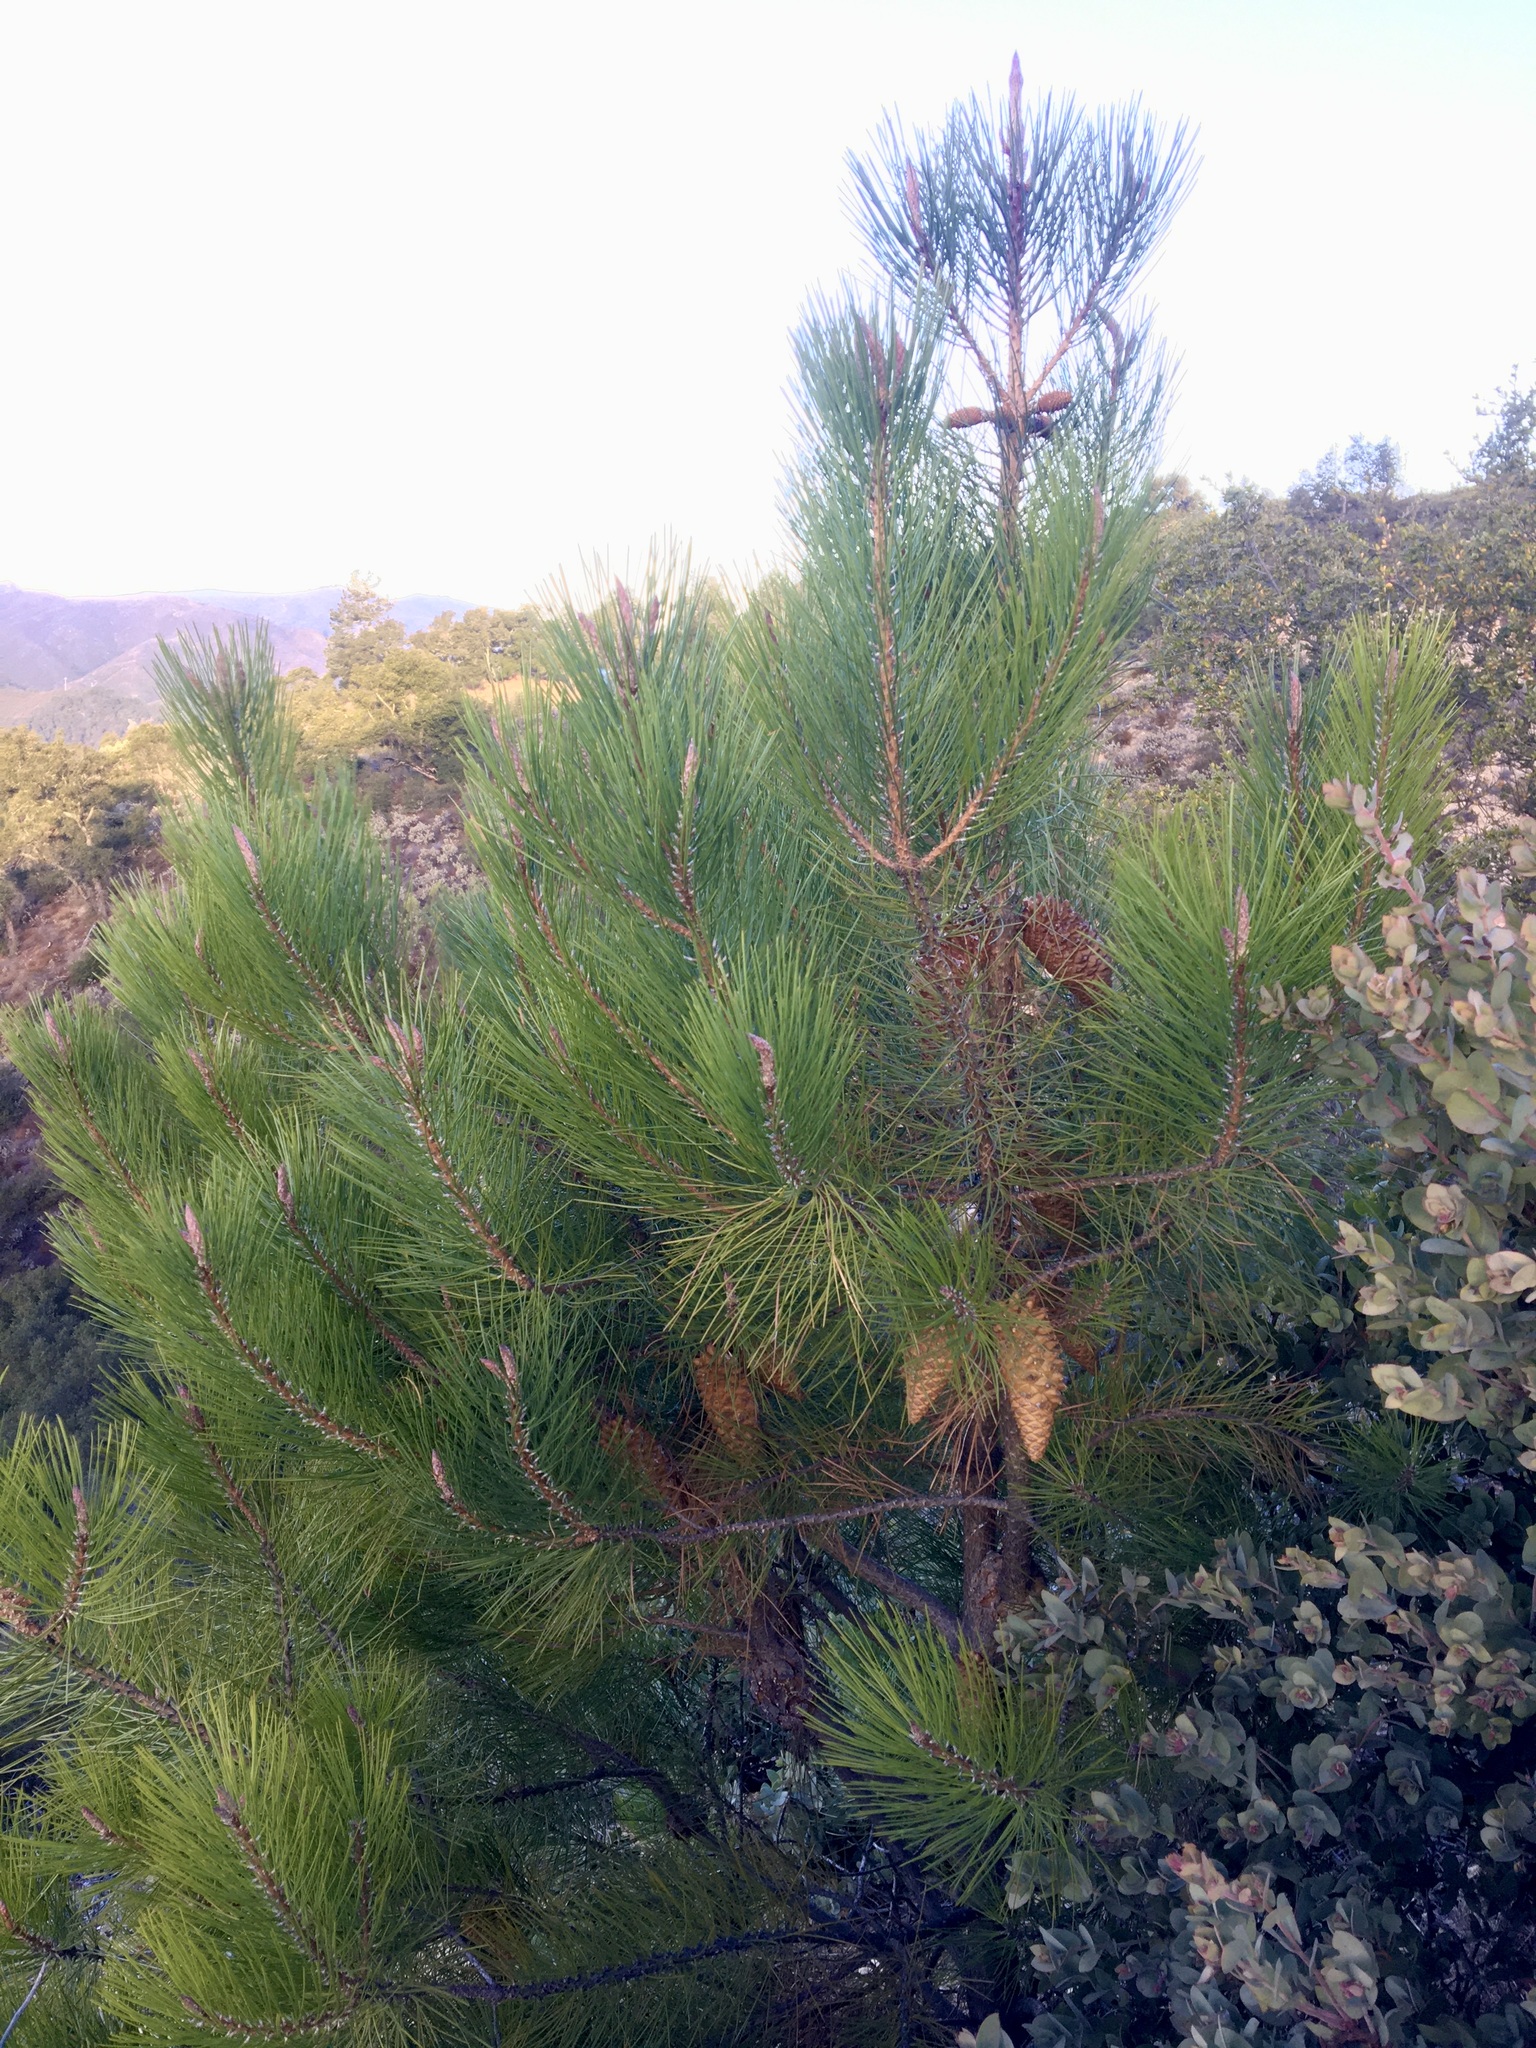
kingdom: Plantae
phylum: Tracheophyta
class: Pinopsida
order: Pinales
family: Pinaceae
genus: Pinus
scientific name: Pinus attenuata
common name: Knobcone pine
